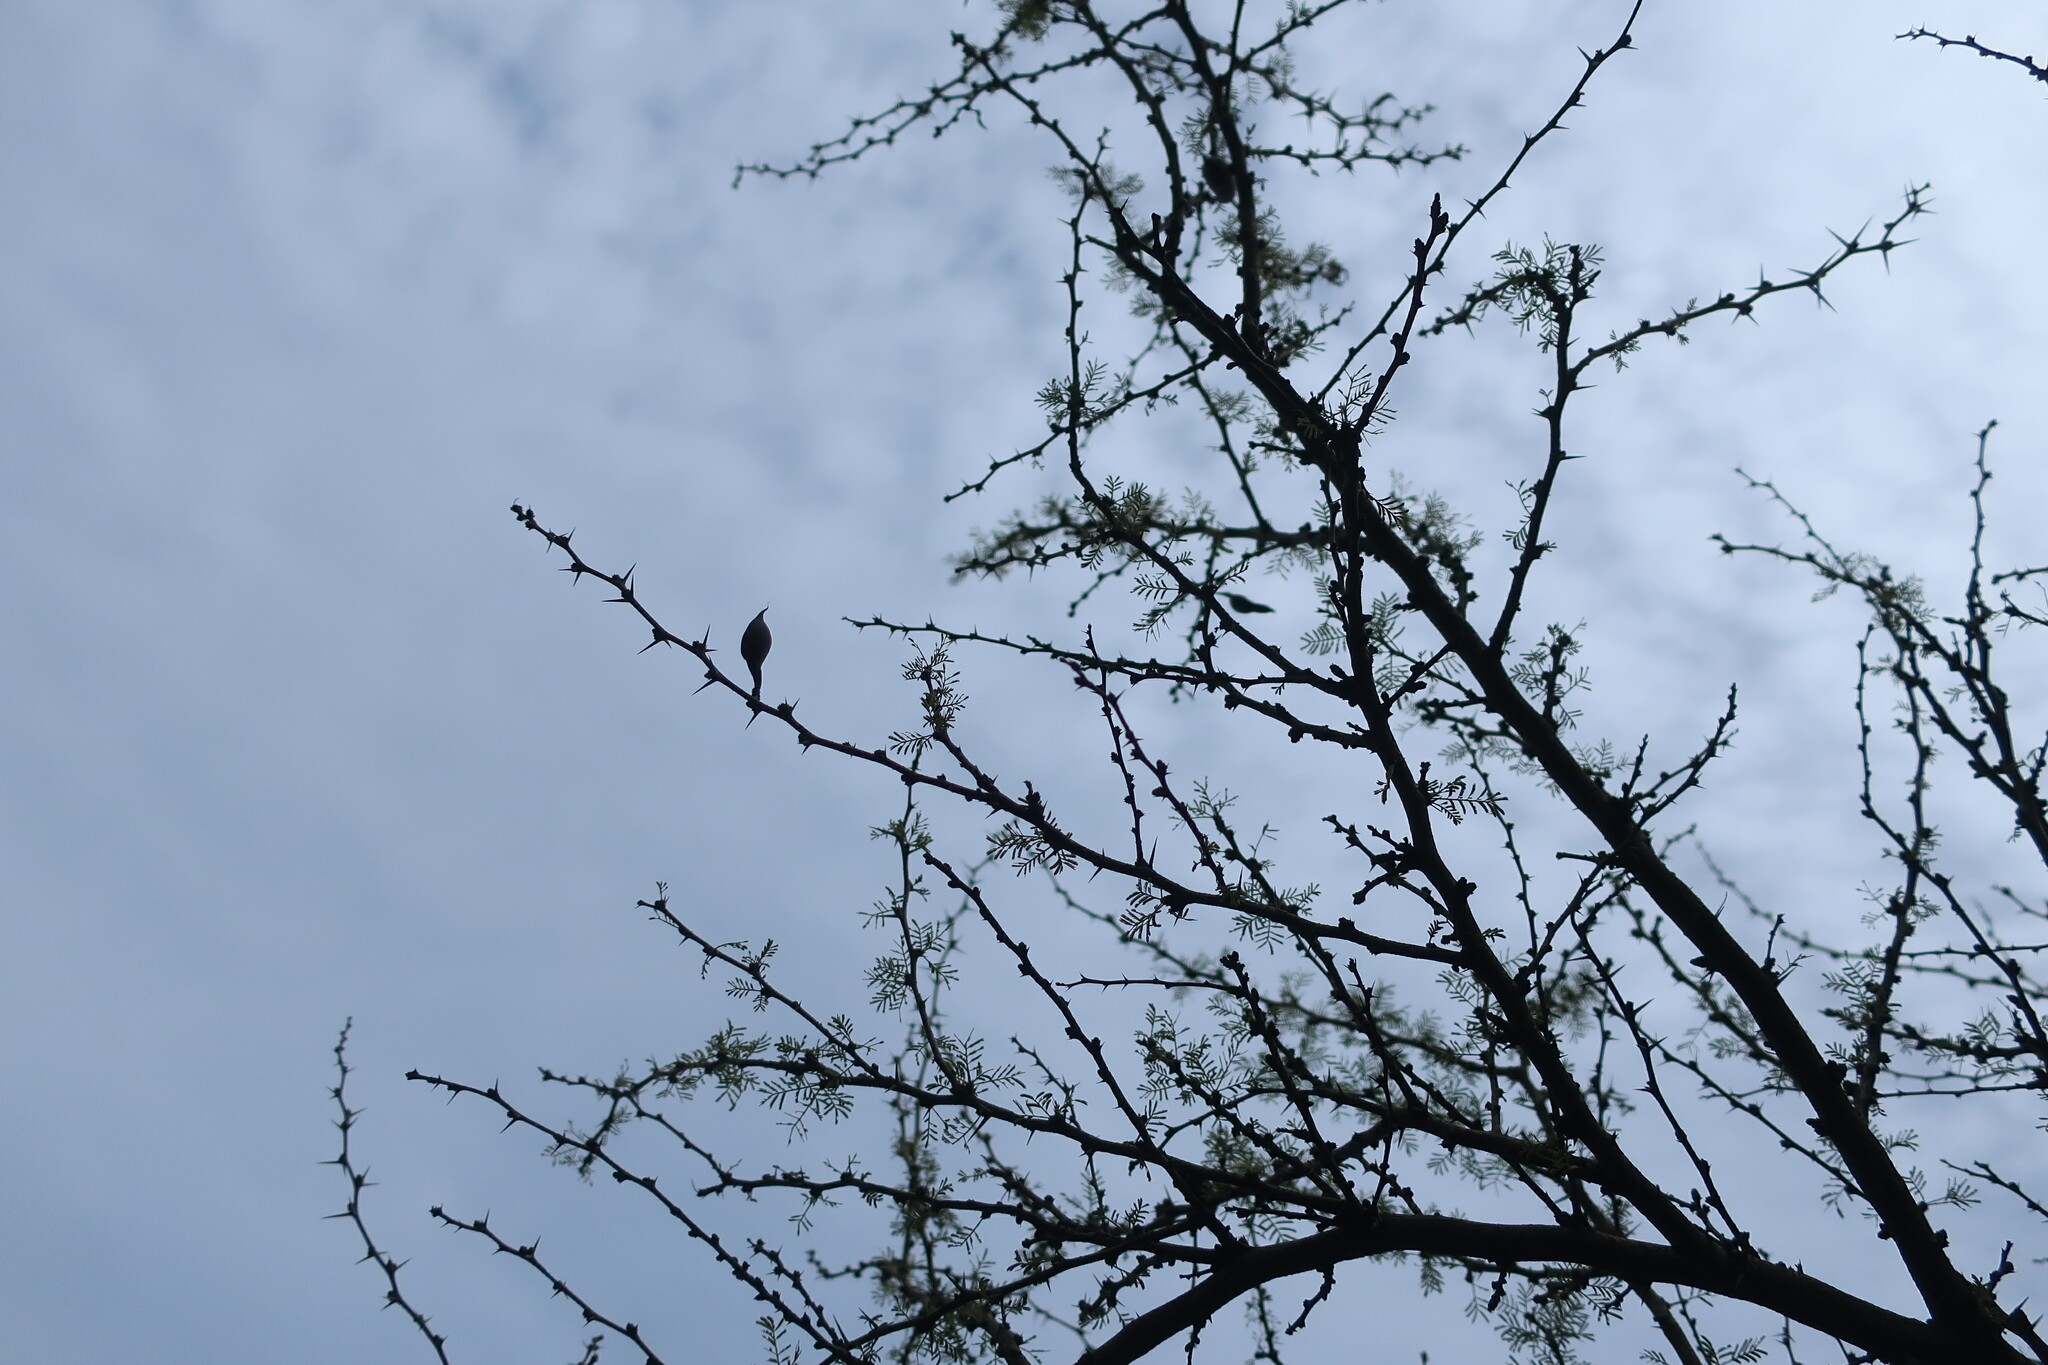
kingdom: Plantae
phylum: Tracheophyta
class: Magnoliopsida
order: Fabales
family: Fabaceae
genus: Vachellia
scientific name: Vachellia caven
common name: Roman cassie
